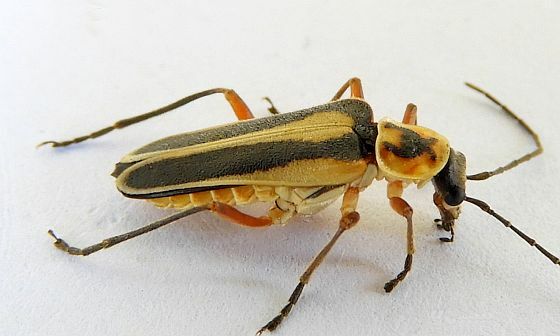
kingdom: Animalia
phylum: Arthropoda
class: Insecta
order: Coleoptera
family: Cantharidae
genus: Chauliognathus
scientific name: Chauliognathus lewisi
